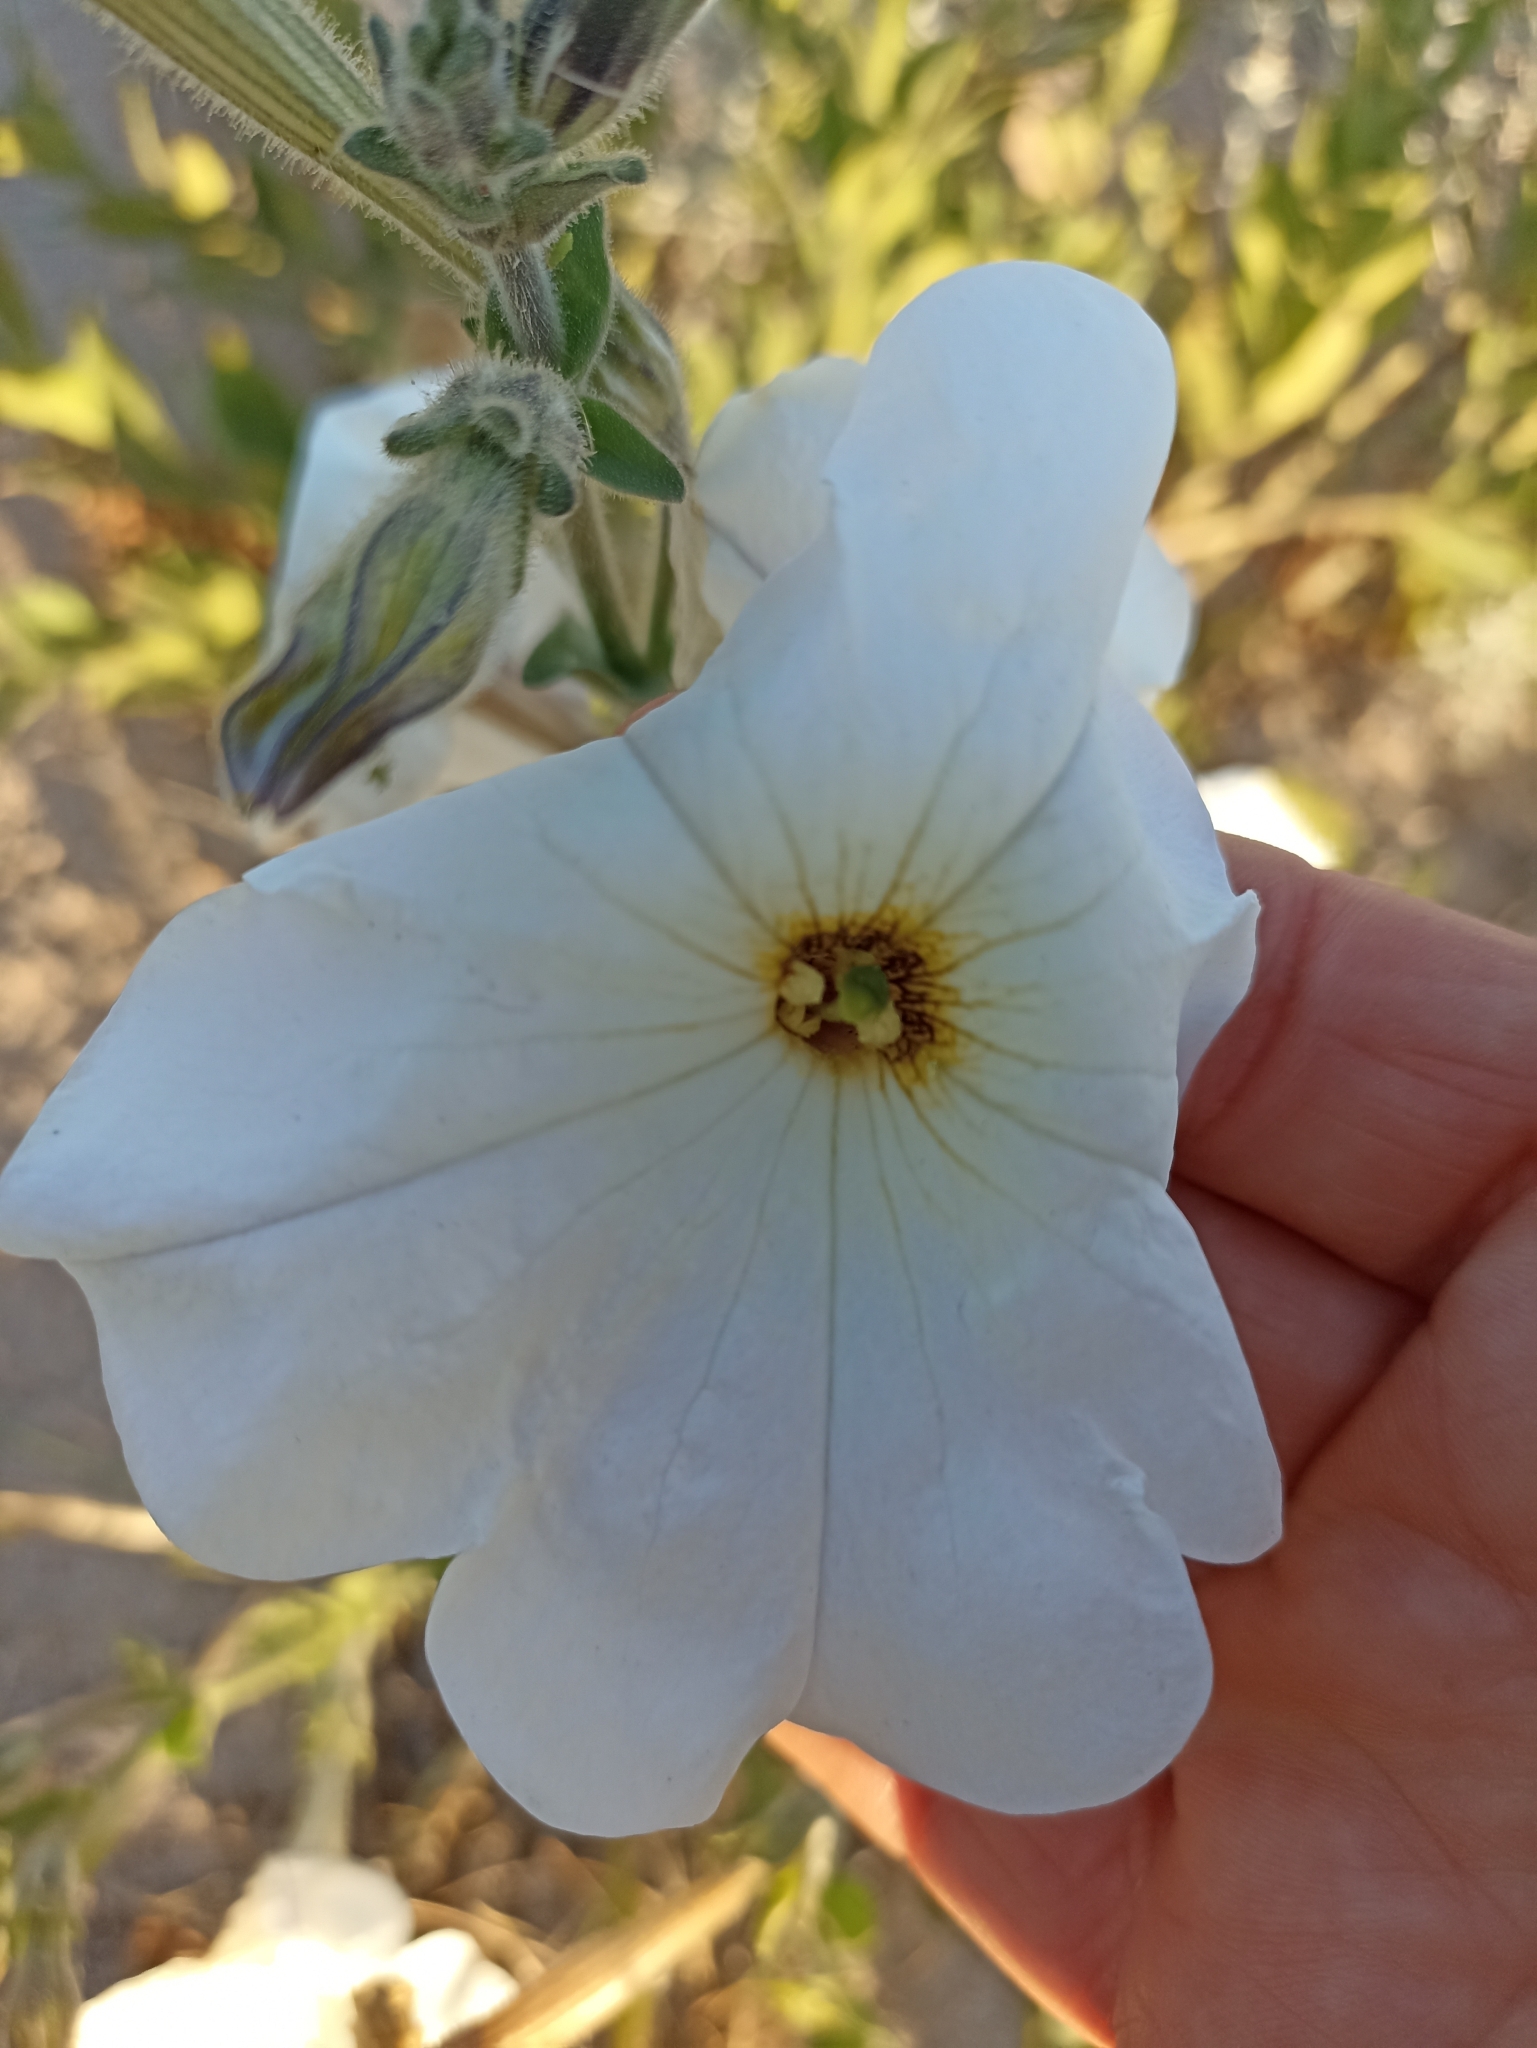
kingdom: Plantae
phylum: Tracheophyta
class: Magnoliopsida
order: Solanales
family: Solanaceae
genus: Petunia
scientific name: Petunia axillaris
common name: Large white petunia
